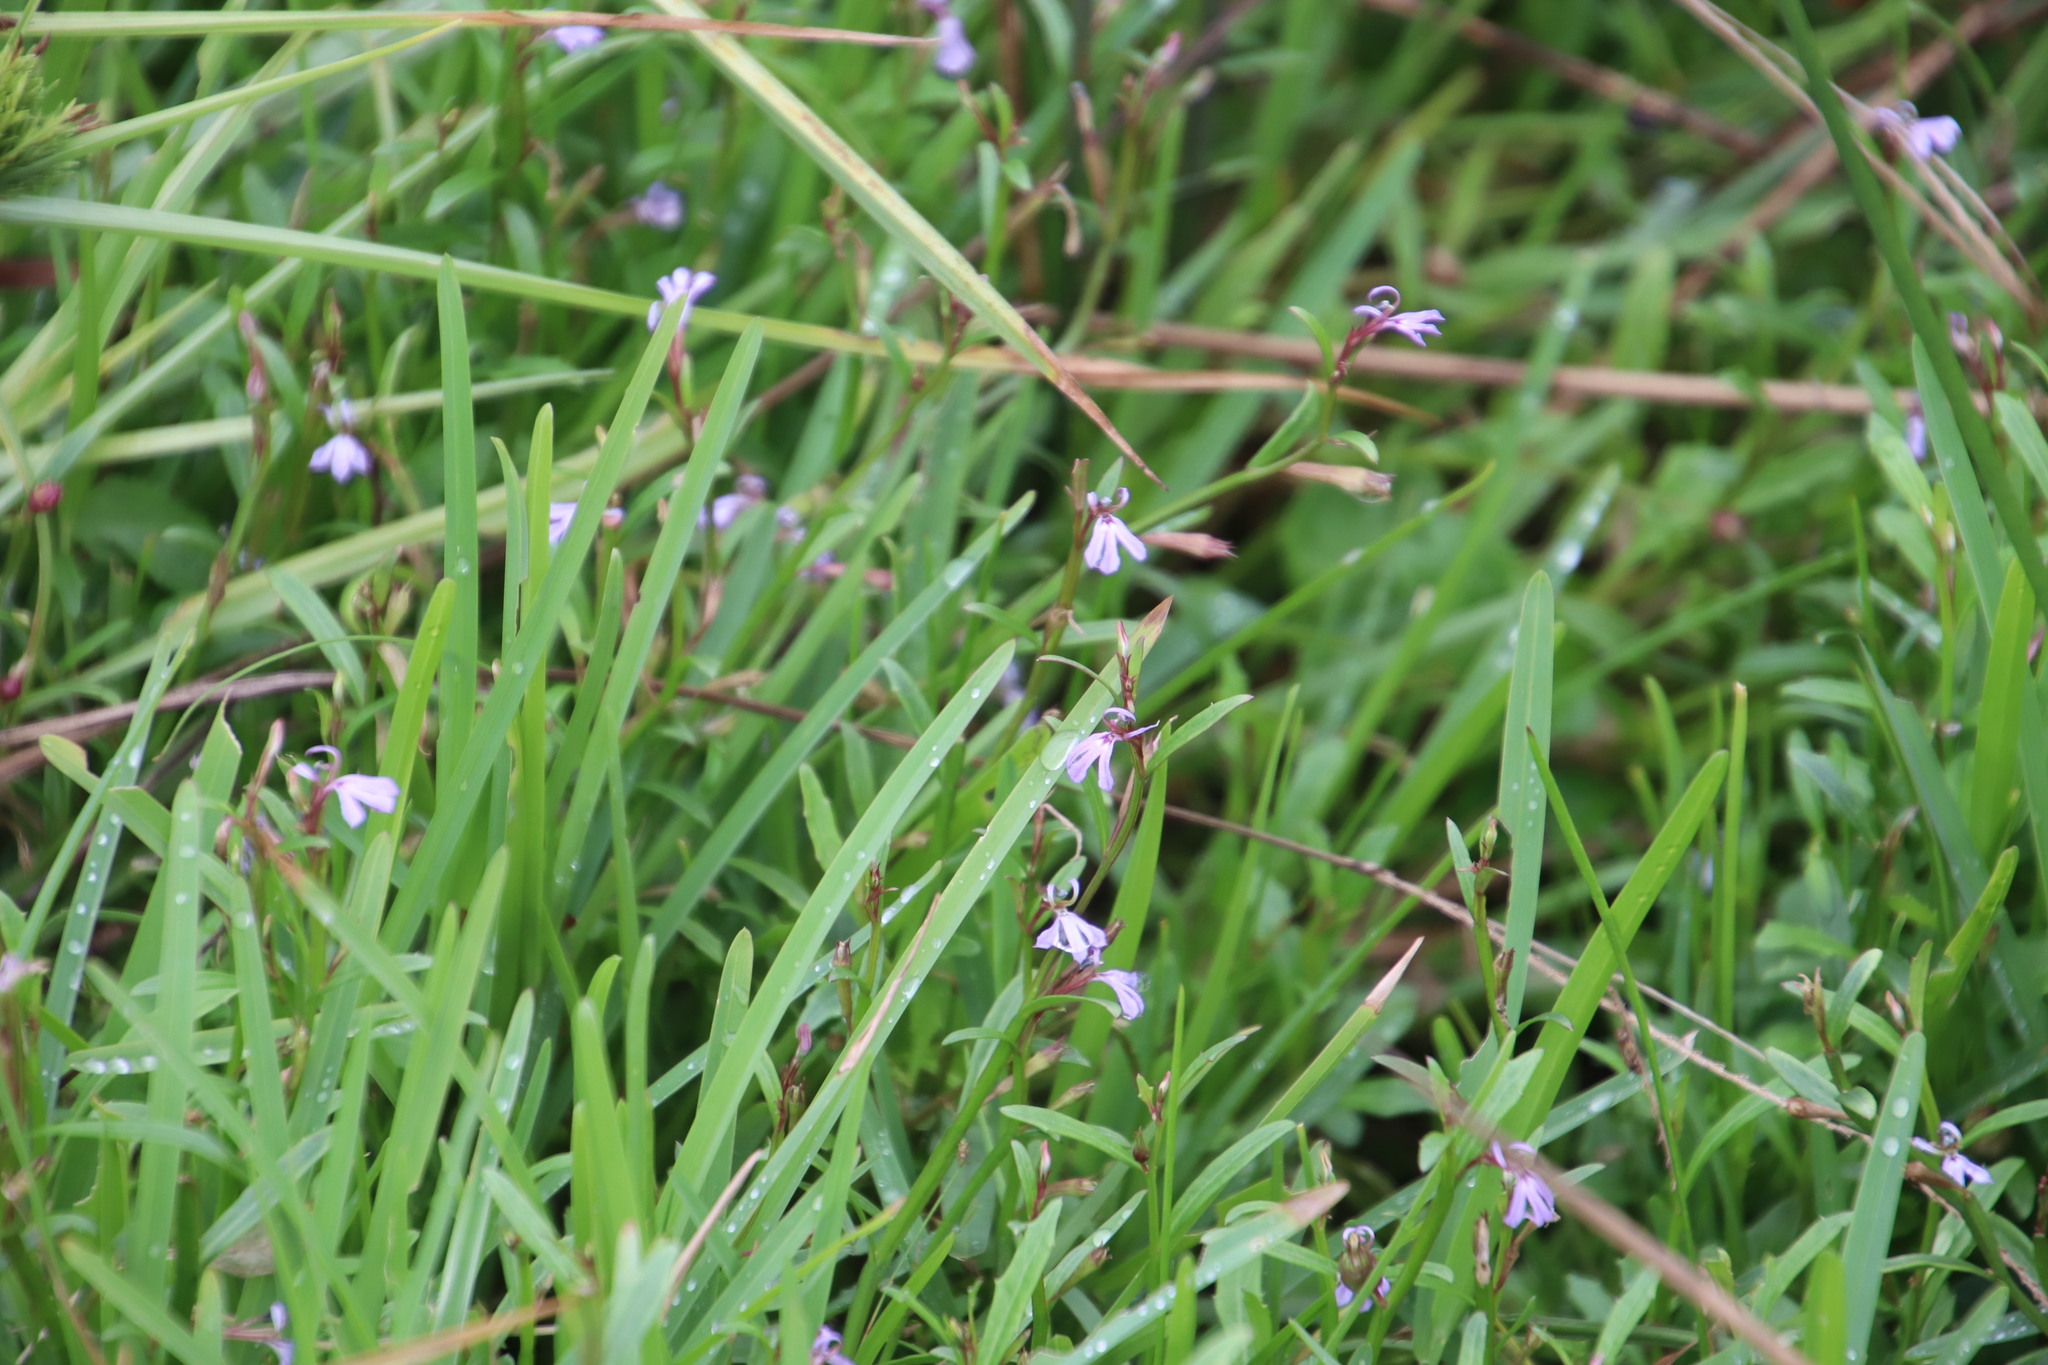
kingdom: Plantae
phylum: Tracheophyta
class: Magnoliopsida
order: Asterales
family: Campanulaceae
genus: Lobelia
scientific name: Lobelia anceps
